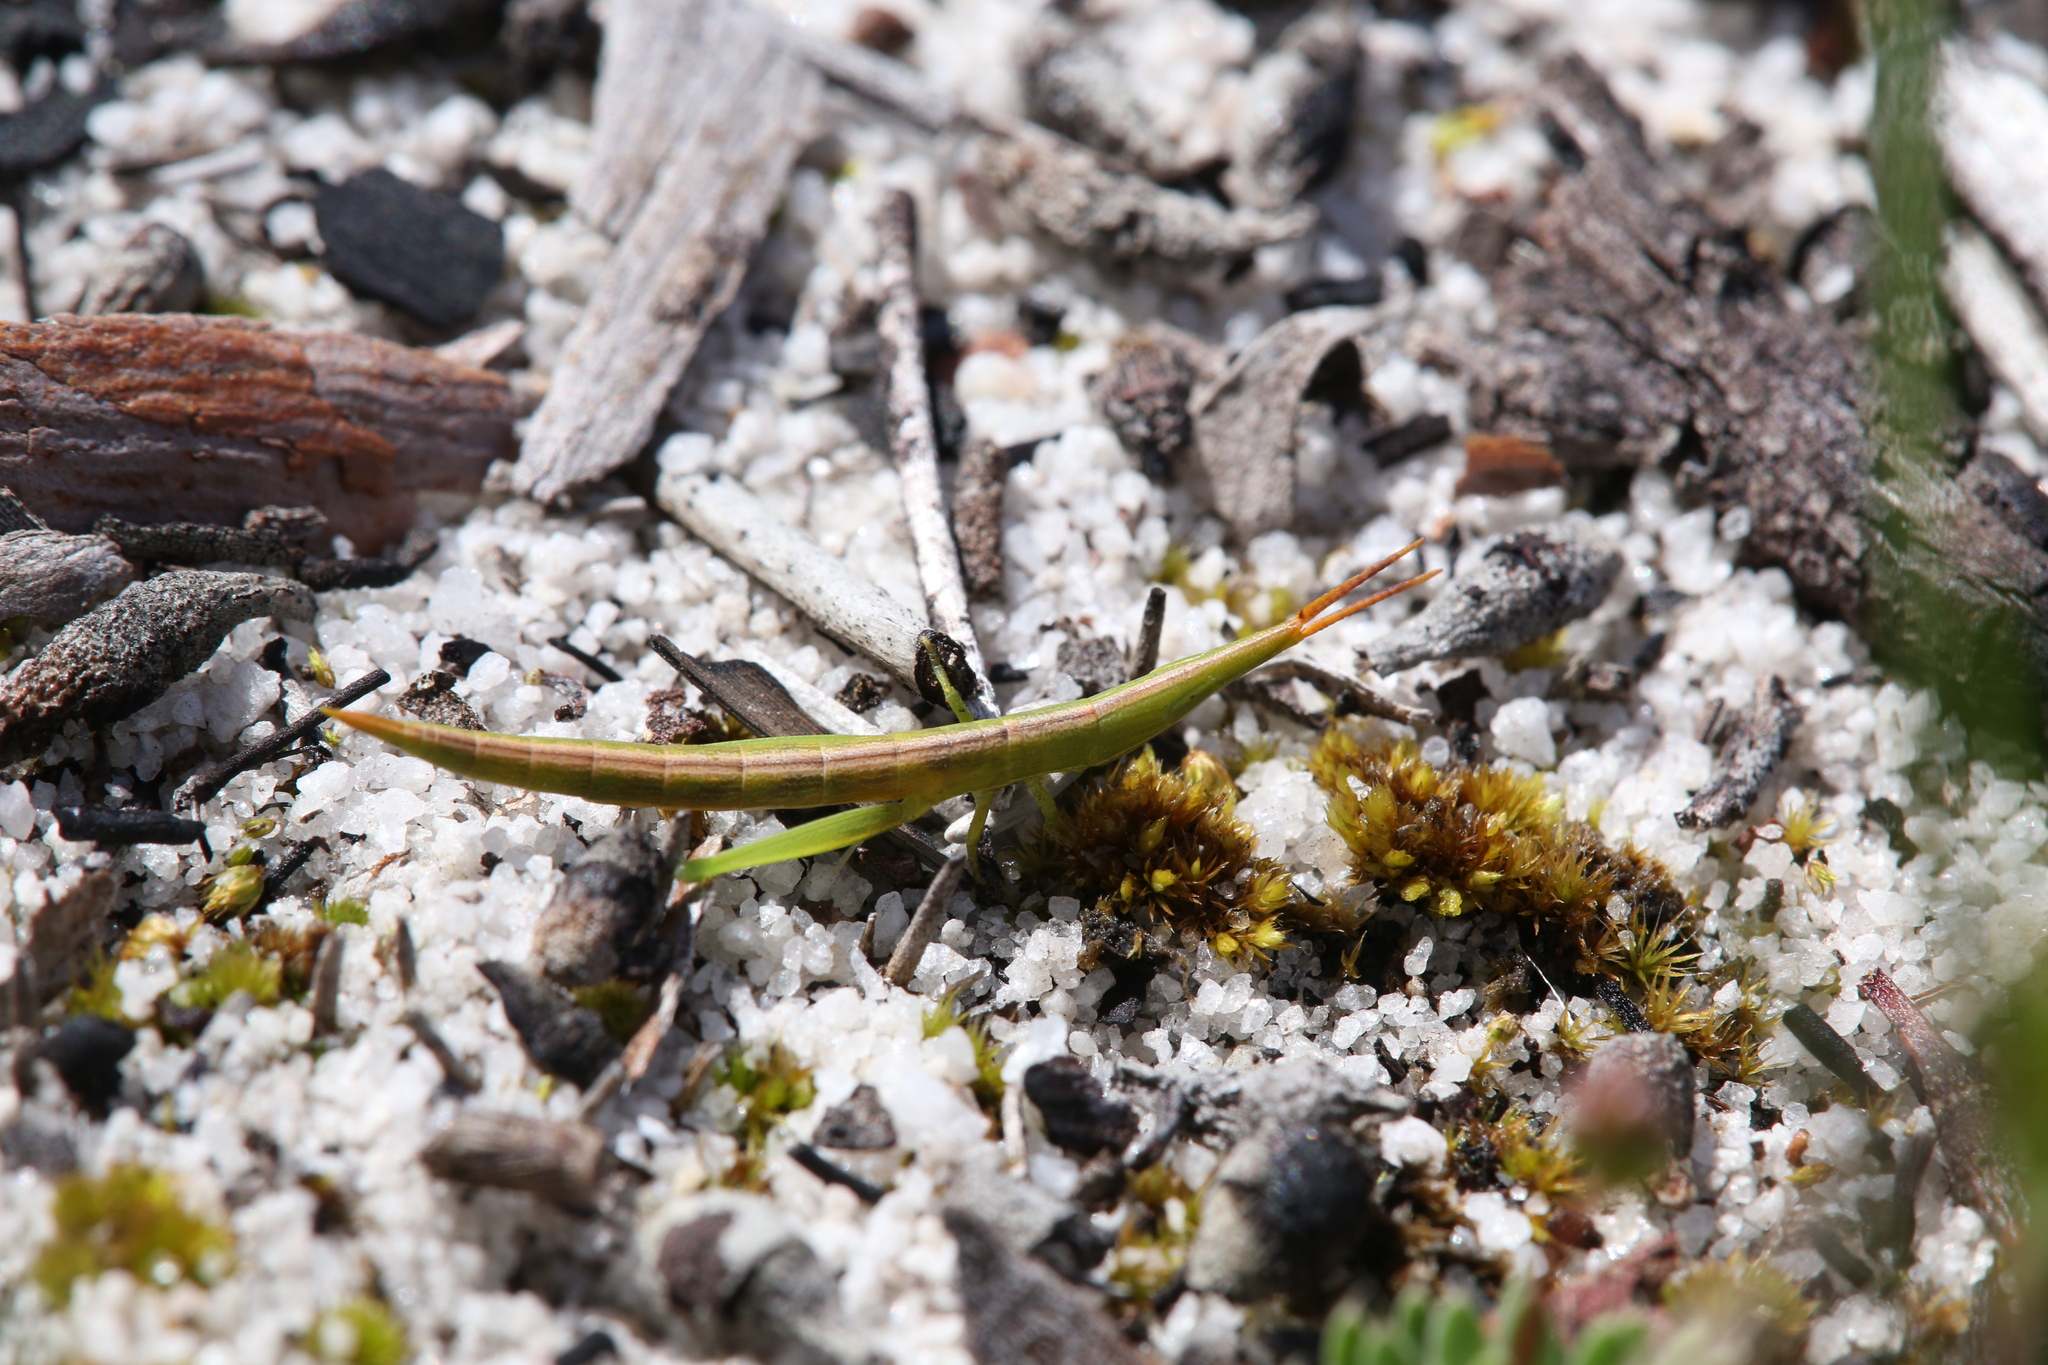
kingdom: Animalia
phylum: Arthropoda
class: Insecta
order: Orthoptera
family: Acrididae
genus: Acrida
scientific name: Acrida conica
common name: Giant green slantface
